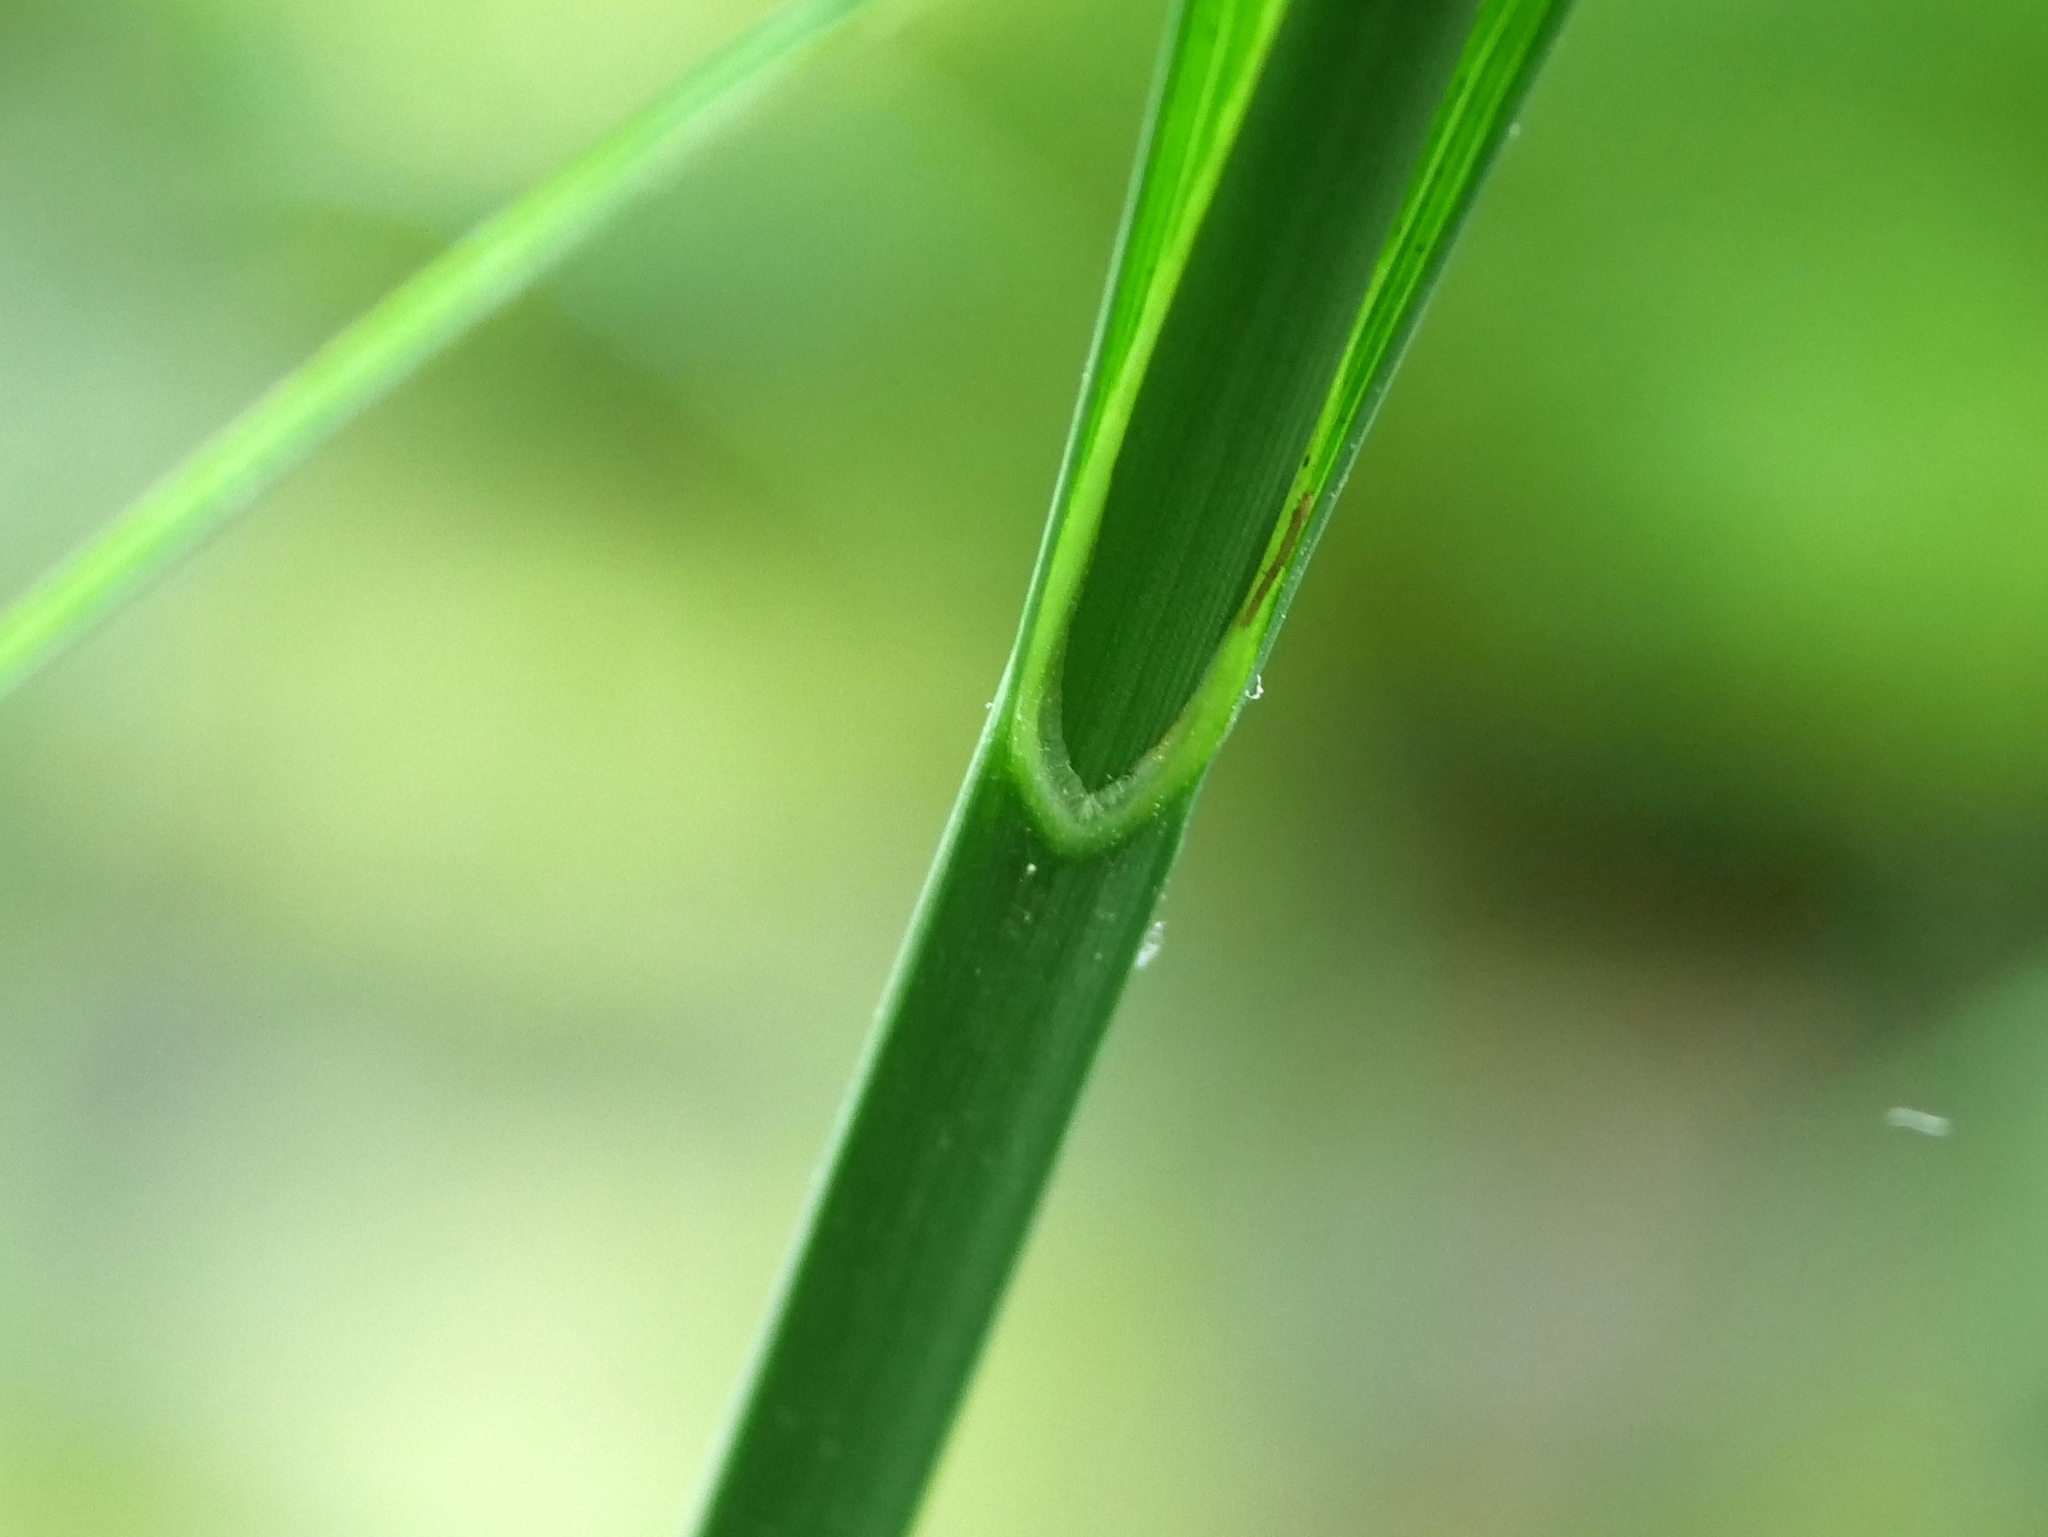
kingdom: Plantae
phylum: Tracheophyta
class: Liliopsida
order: Poales
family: Cyperaceae
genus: Carex
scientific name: Carex pendula
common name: Pendulous sedge
